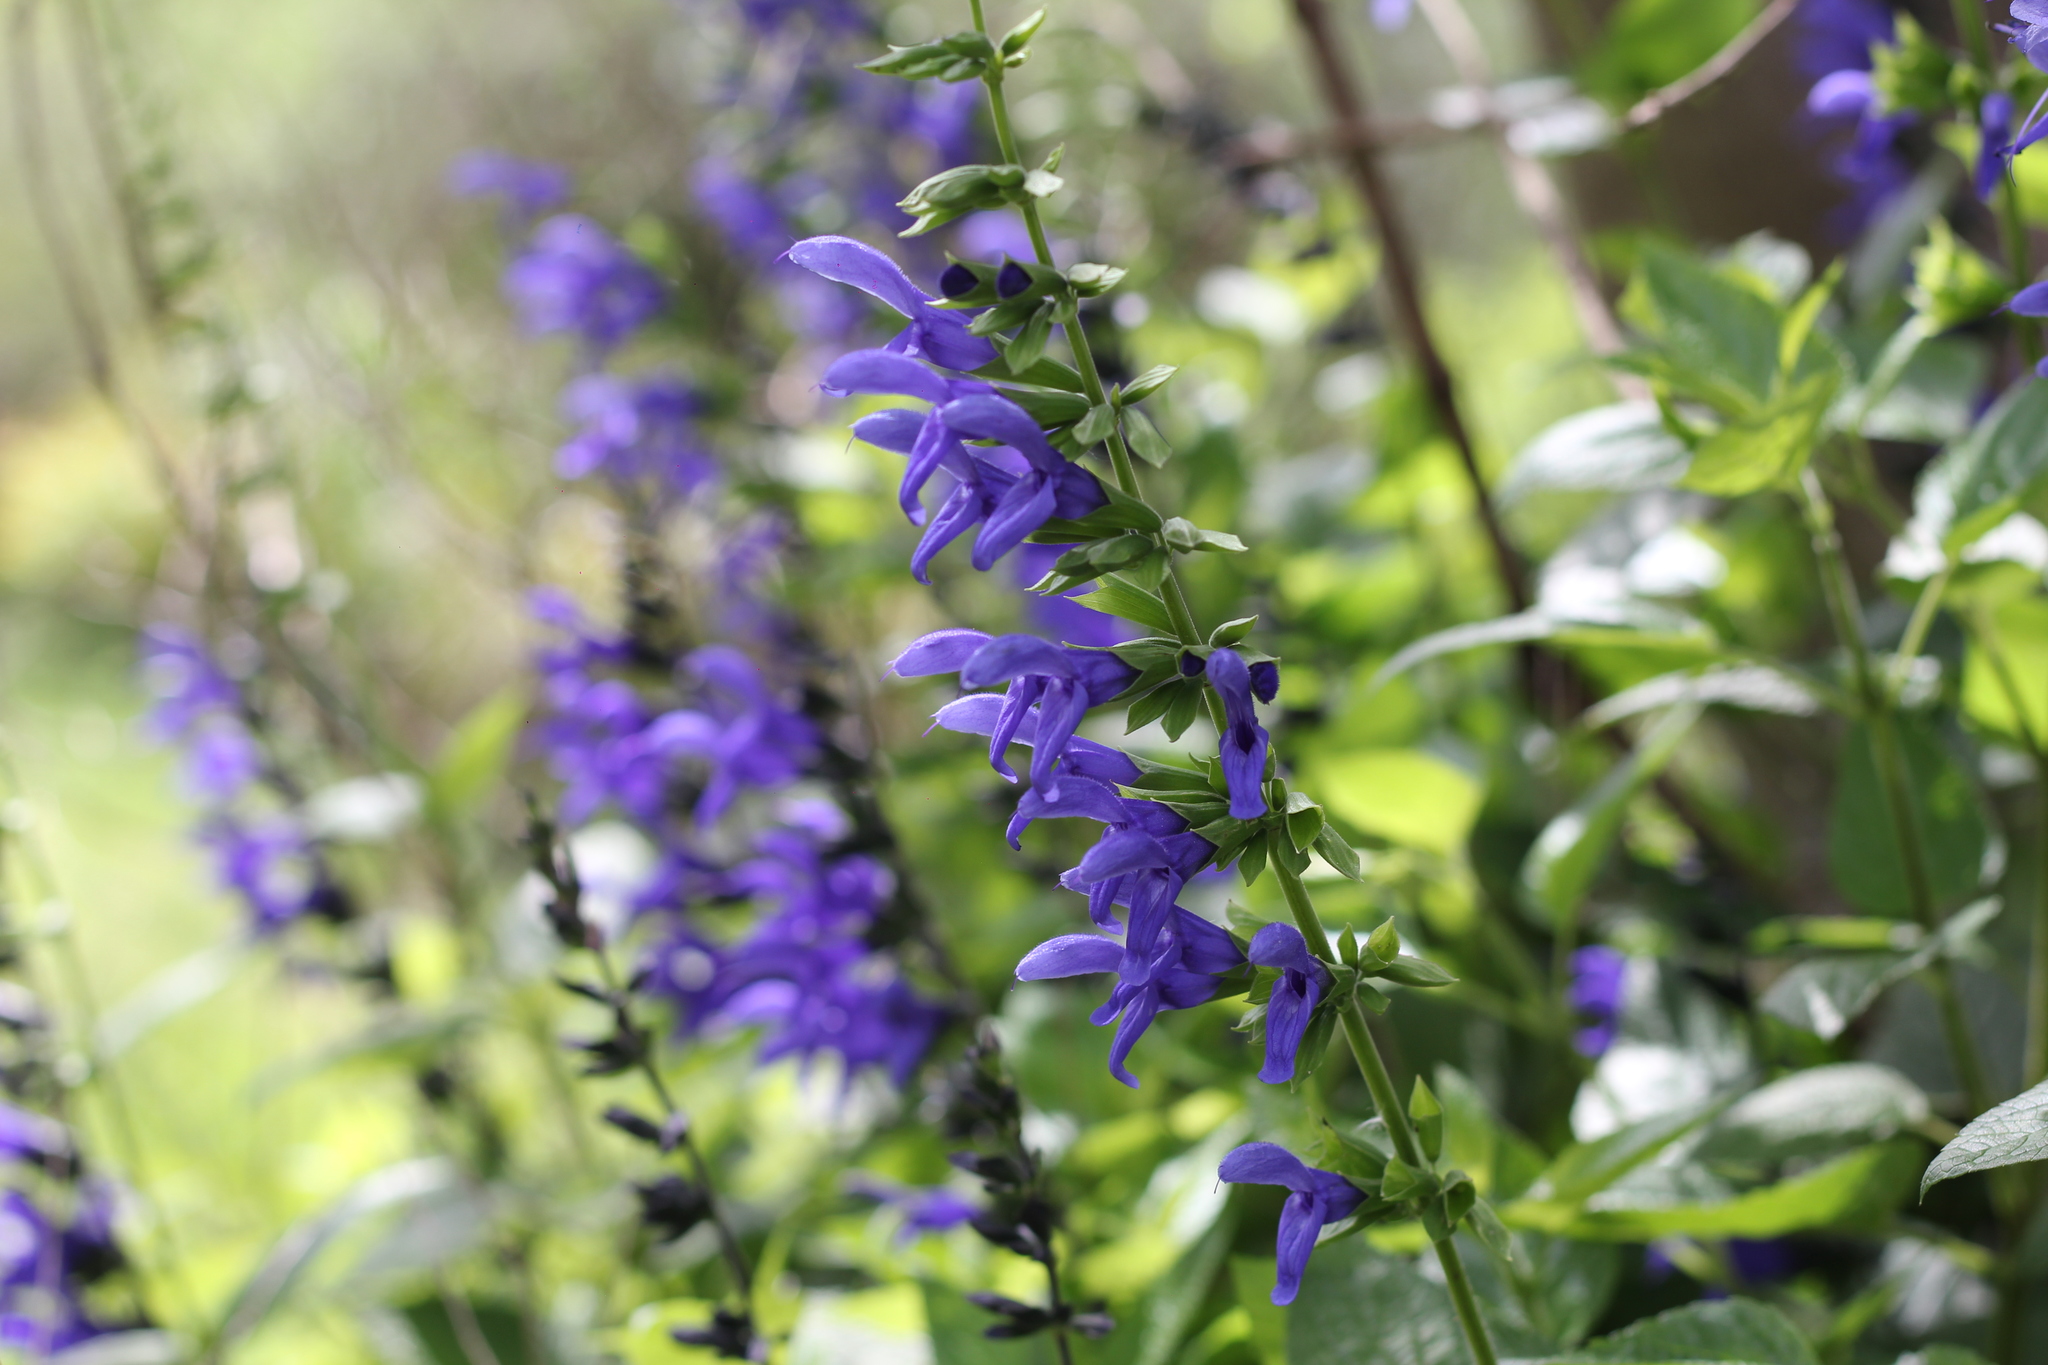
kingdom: Plantae
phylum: Tracheophyta
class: Magnoliopsida
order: Lamiales
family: Lamiaceae
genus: Salvia
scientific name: Salvia guaranitica
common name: Anise-scented sage
